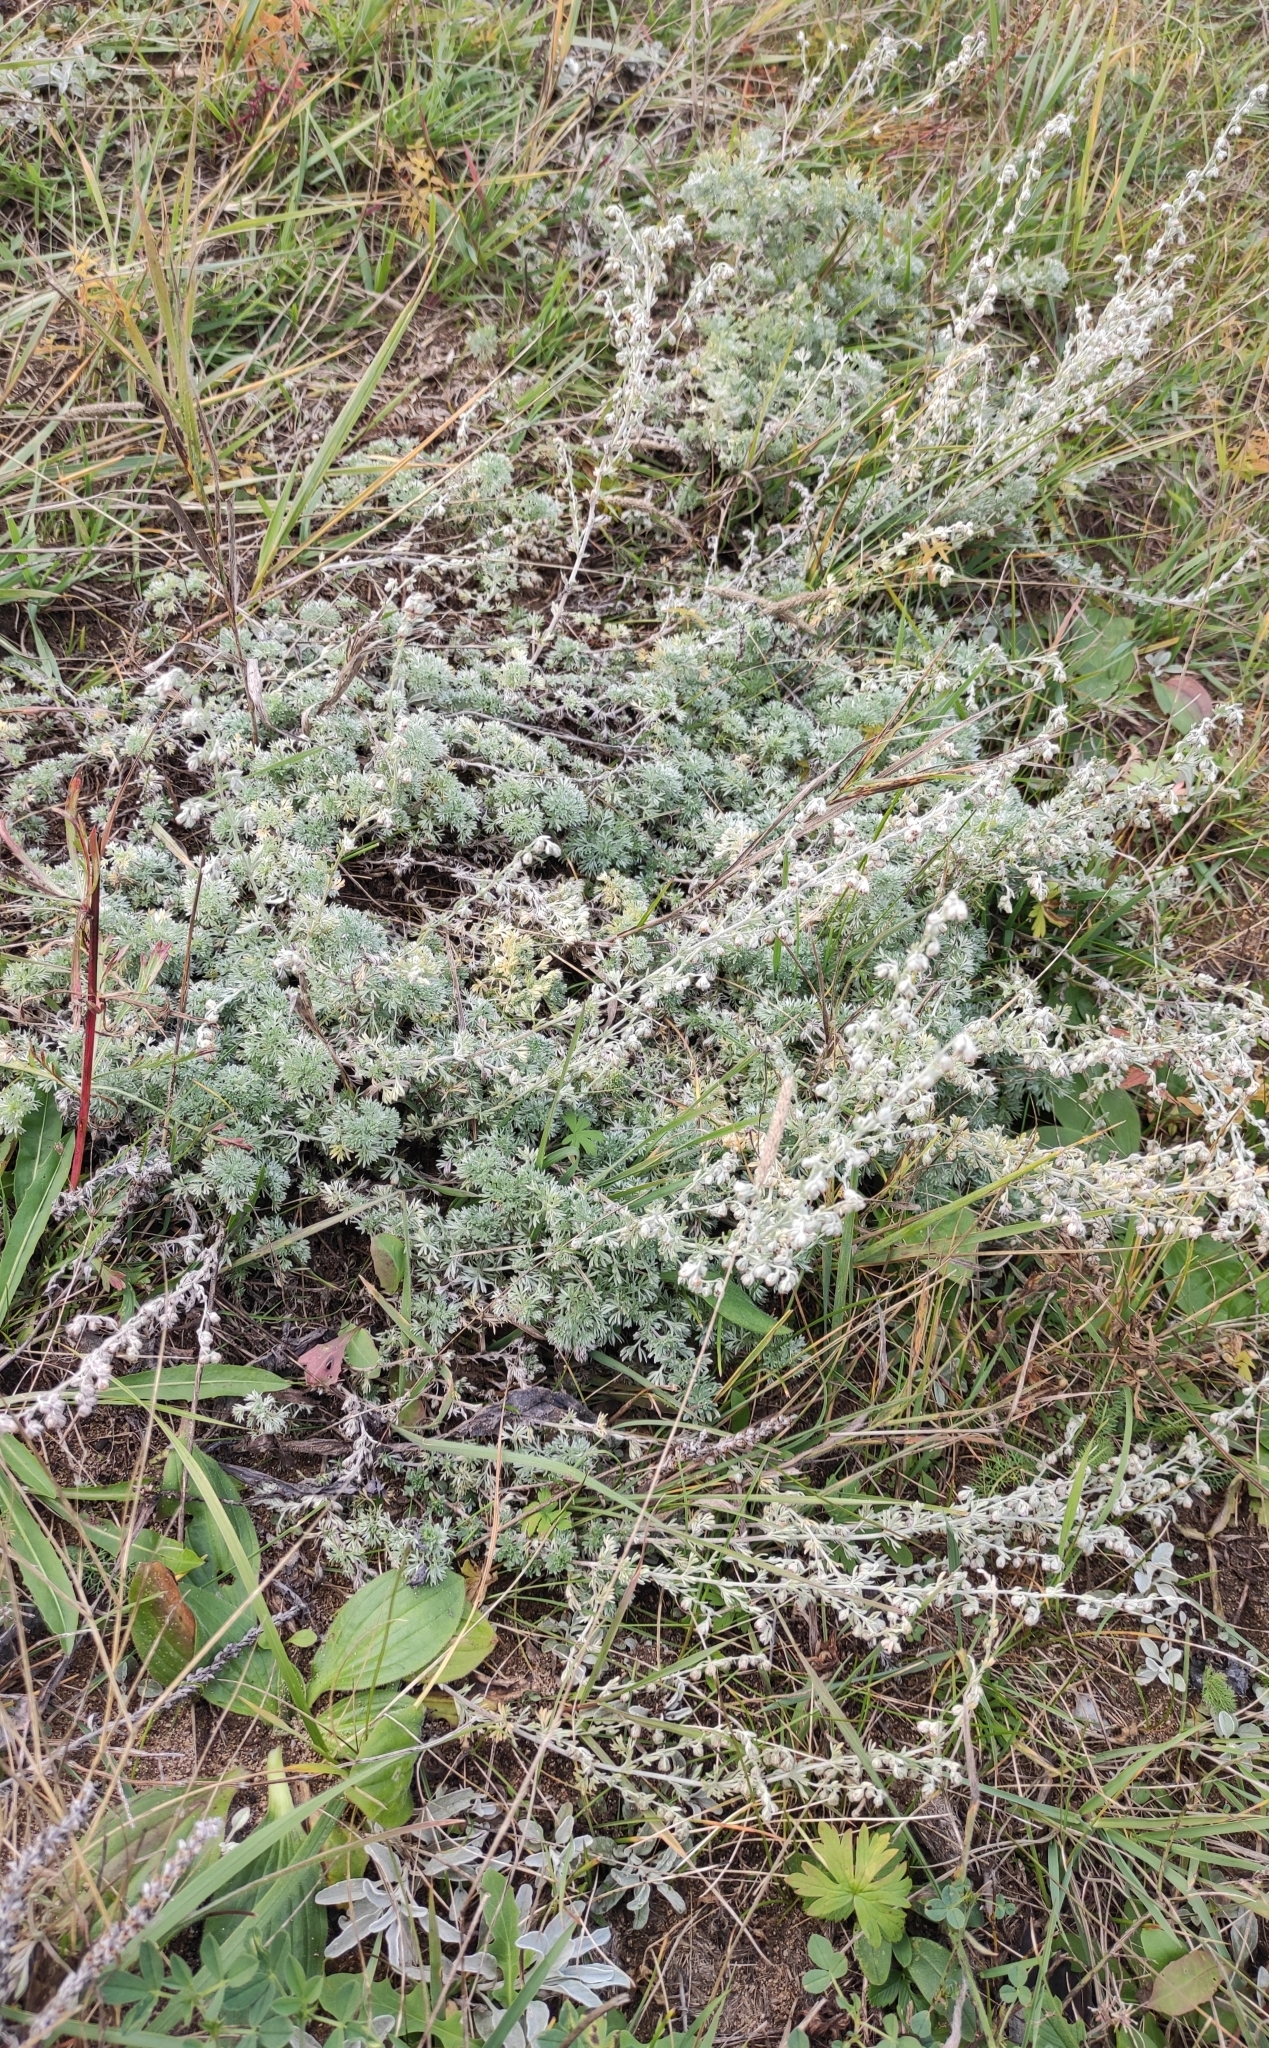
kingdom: Plantae
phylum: Tracheophyta
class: Magnoliopsida
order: Asterales
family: Asteraceae
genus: Artemisia
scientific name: Artemisia frigida
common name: Prairie sagewort
